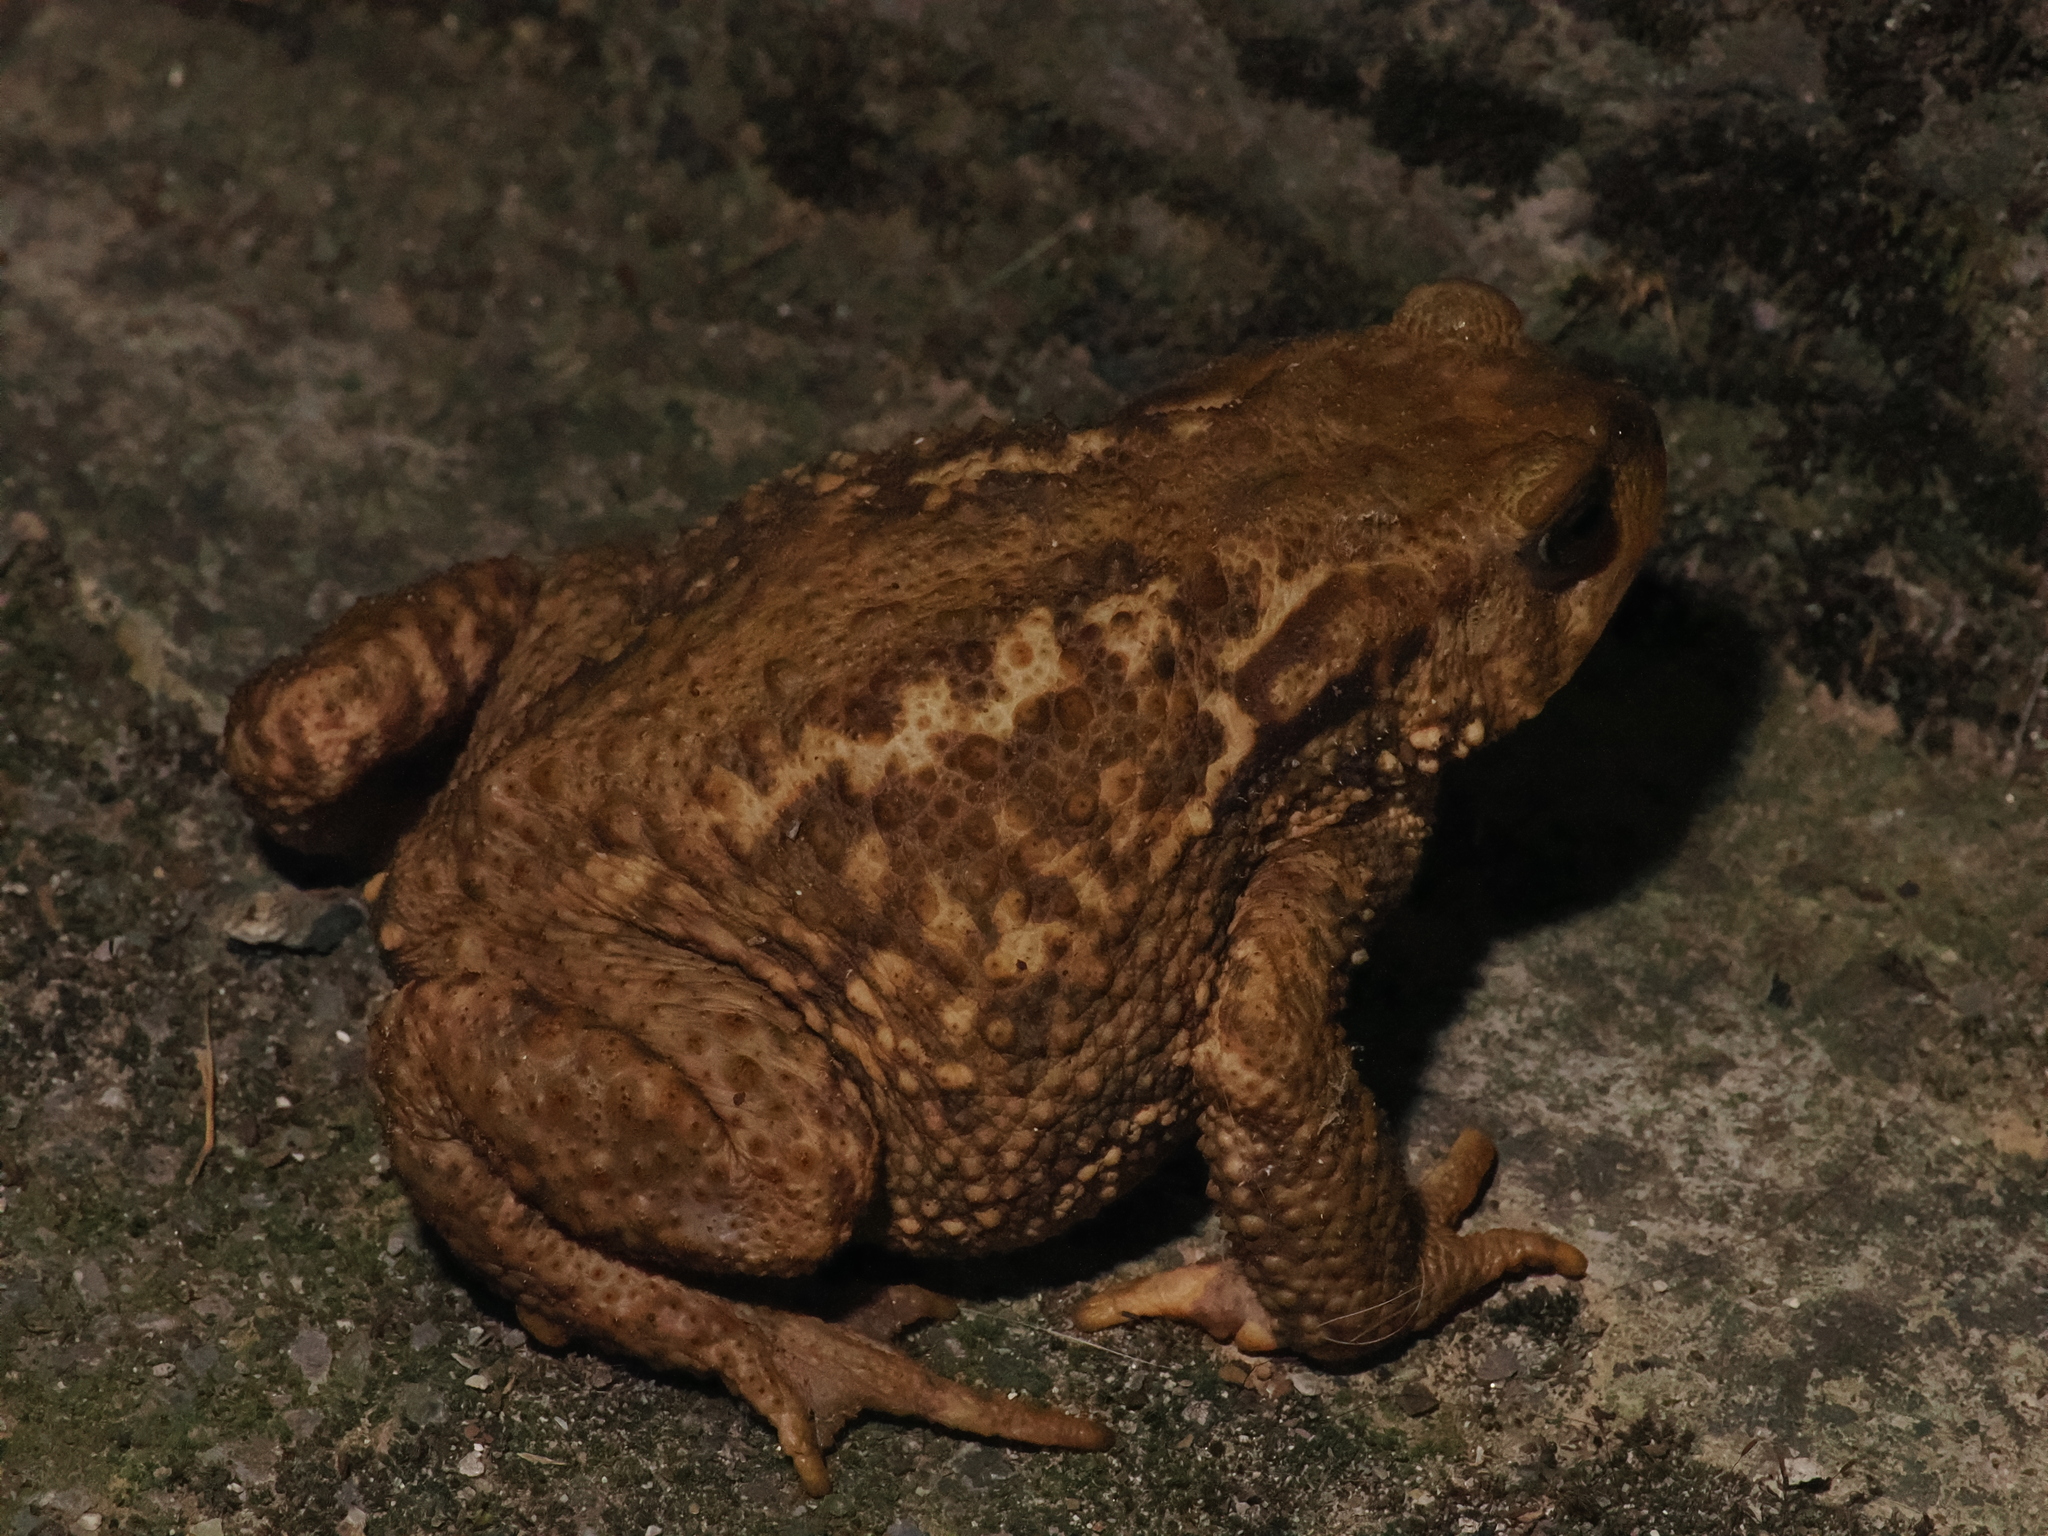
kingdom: Animalia
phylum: Chordata
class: Amphibia
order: Anura
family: Bufonidae
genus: Bufo
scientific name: Bufo spinosus
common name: Western common toad
